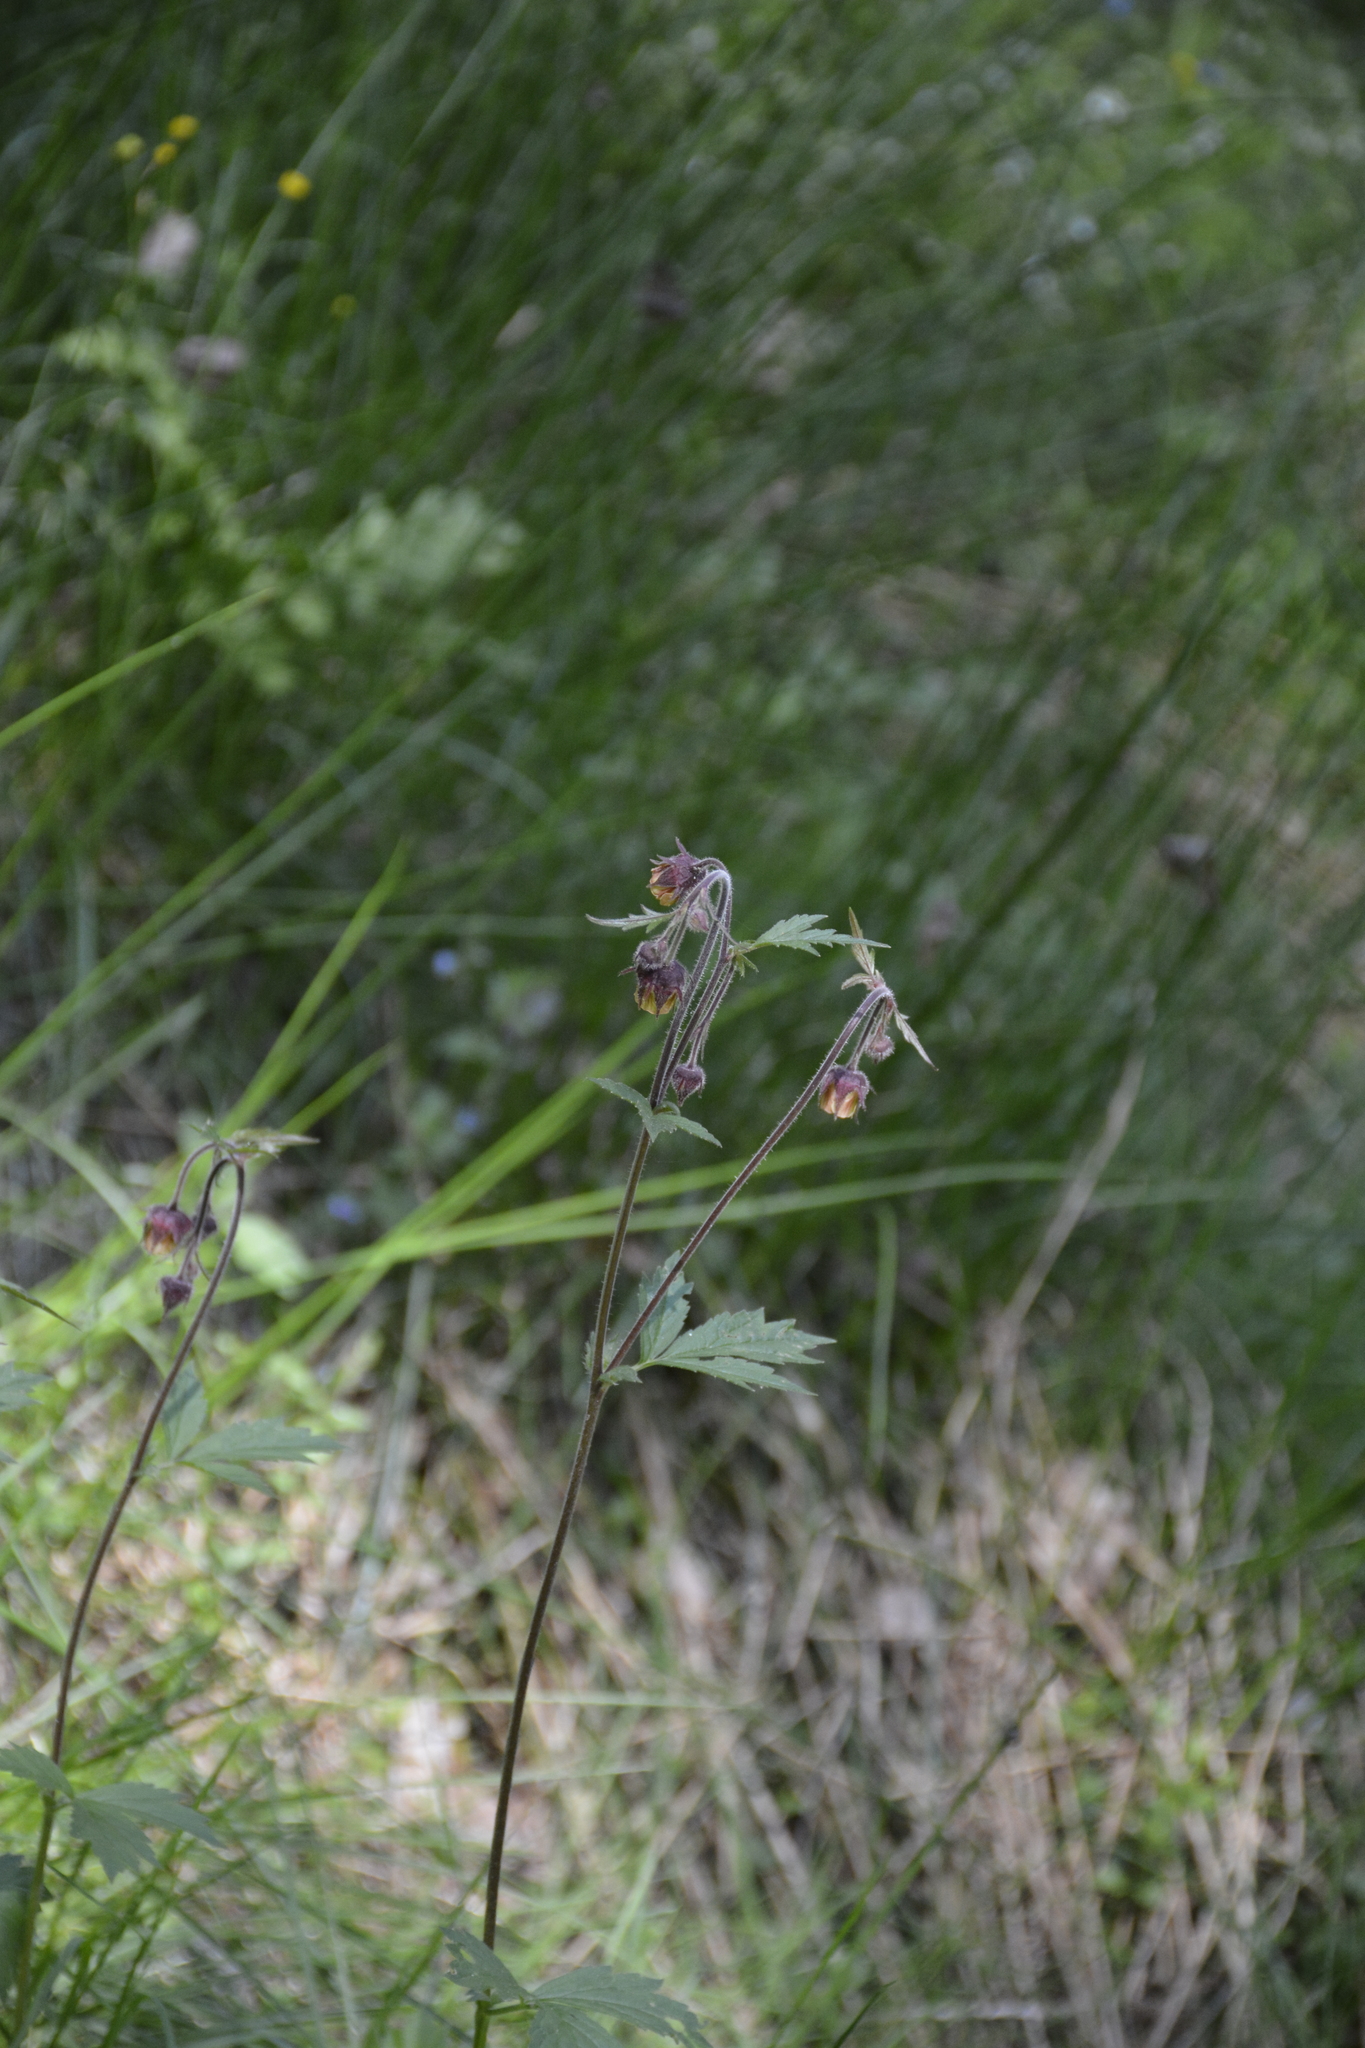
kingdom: Plantae
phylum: Tracheophyta
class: Magnoliopsida
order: Rosales
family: Rosaceae
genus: Geum
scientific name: Geum rivale
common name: Water avens
